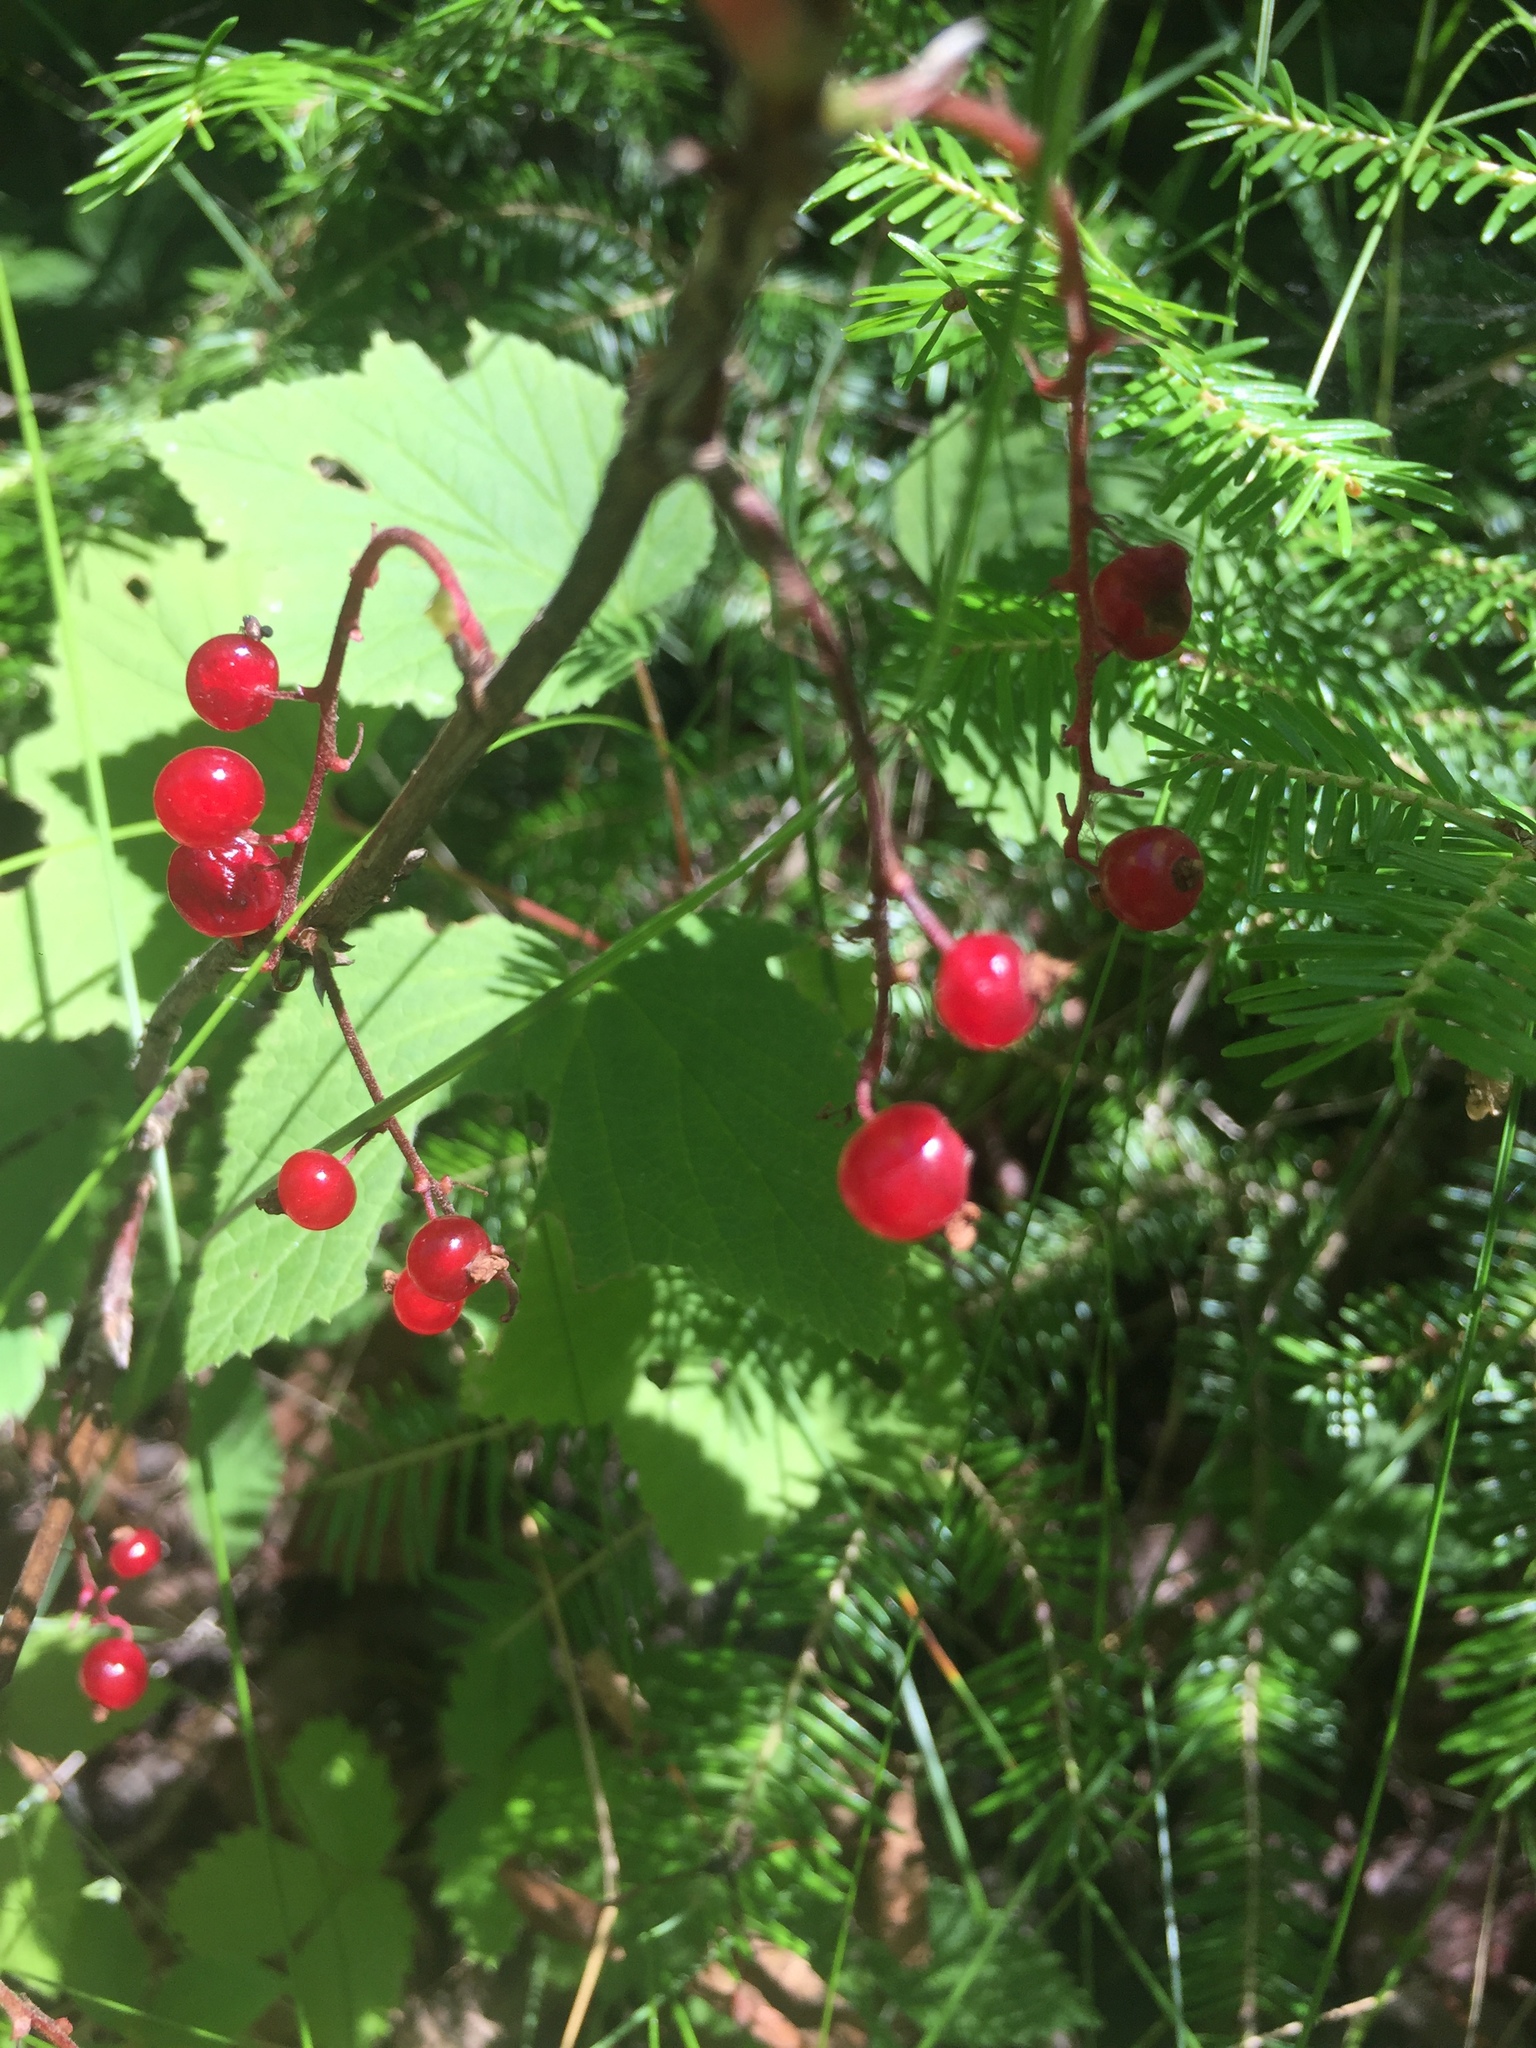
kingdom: Plantae
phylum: Tracheophyta
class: Magnoliopsida
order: Saxifragales
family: Grossulariaceae
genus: Ribes
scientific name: Ribes triste
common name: Swamp red currant
